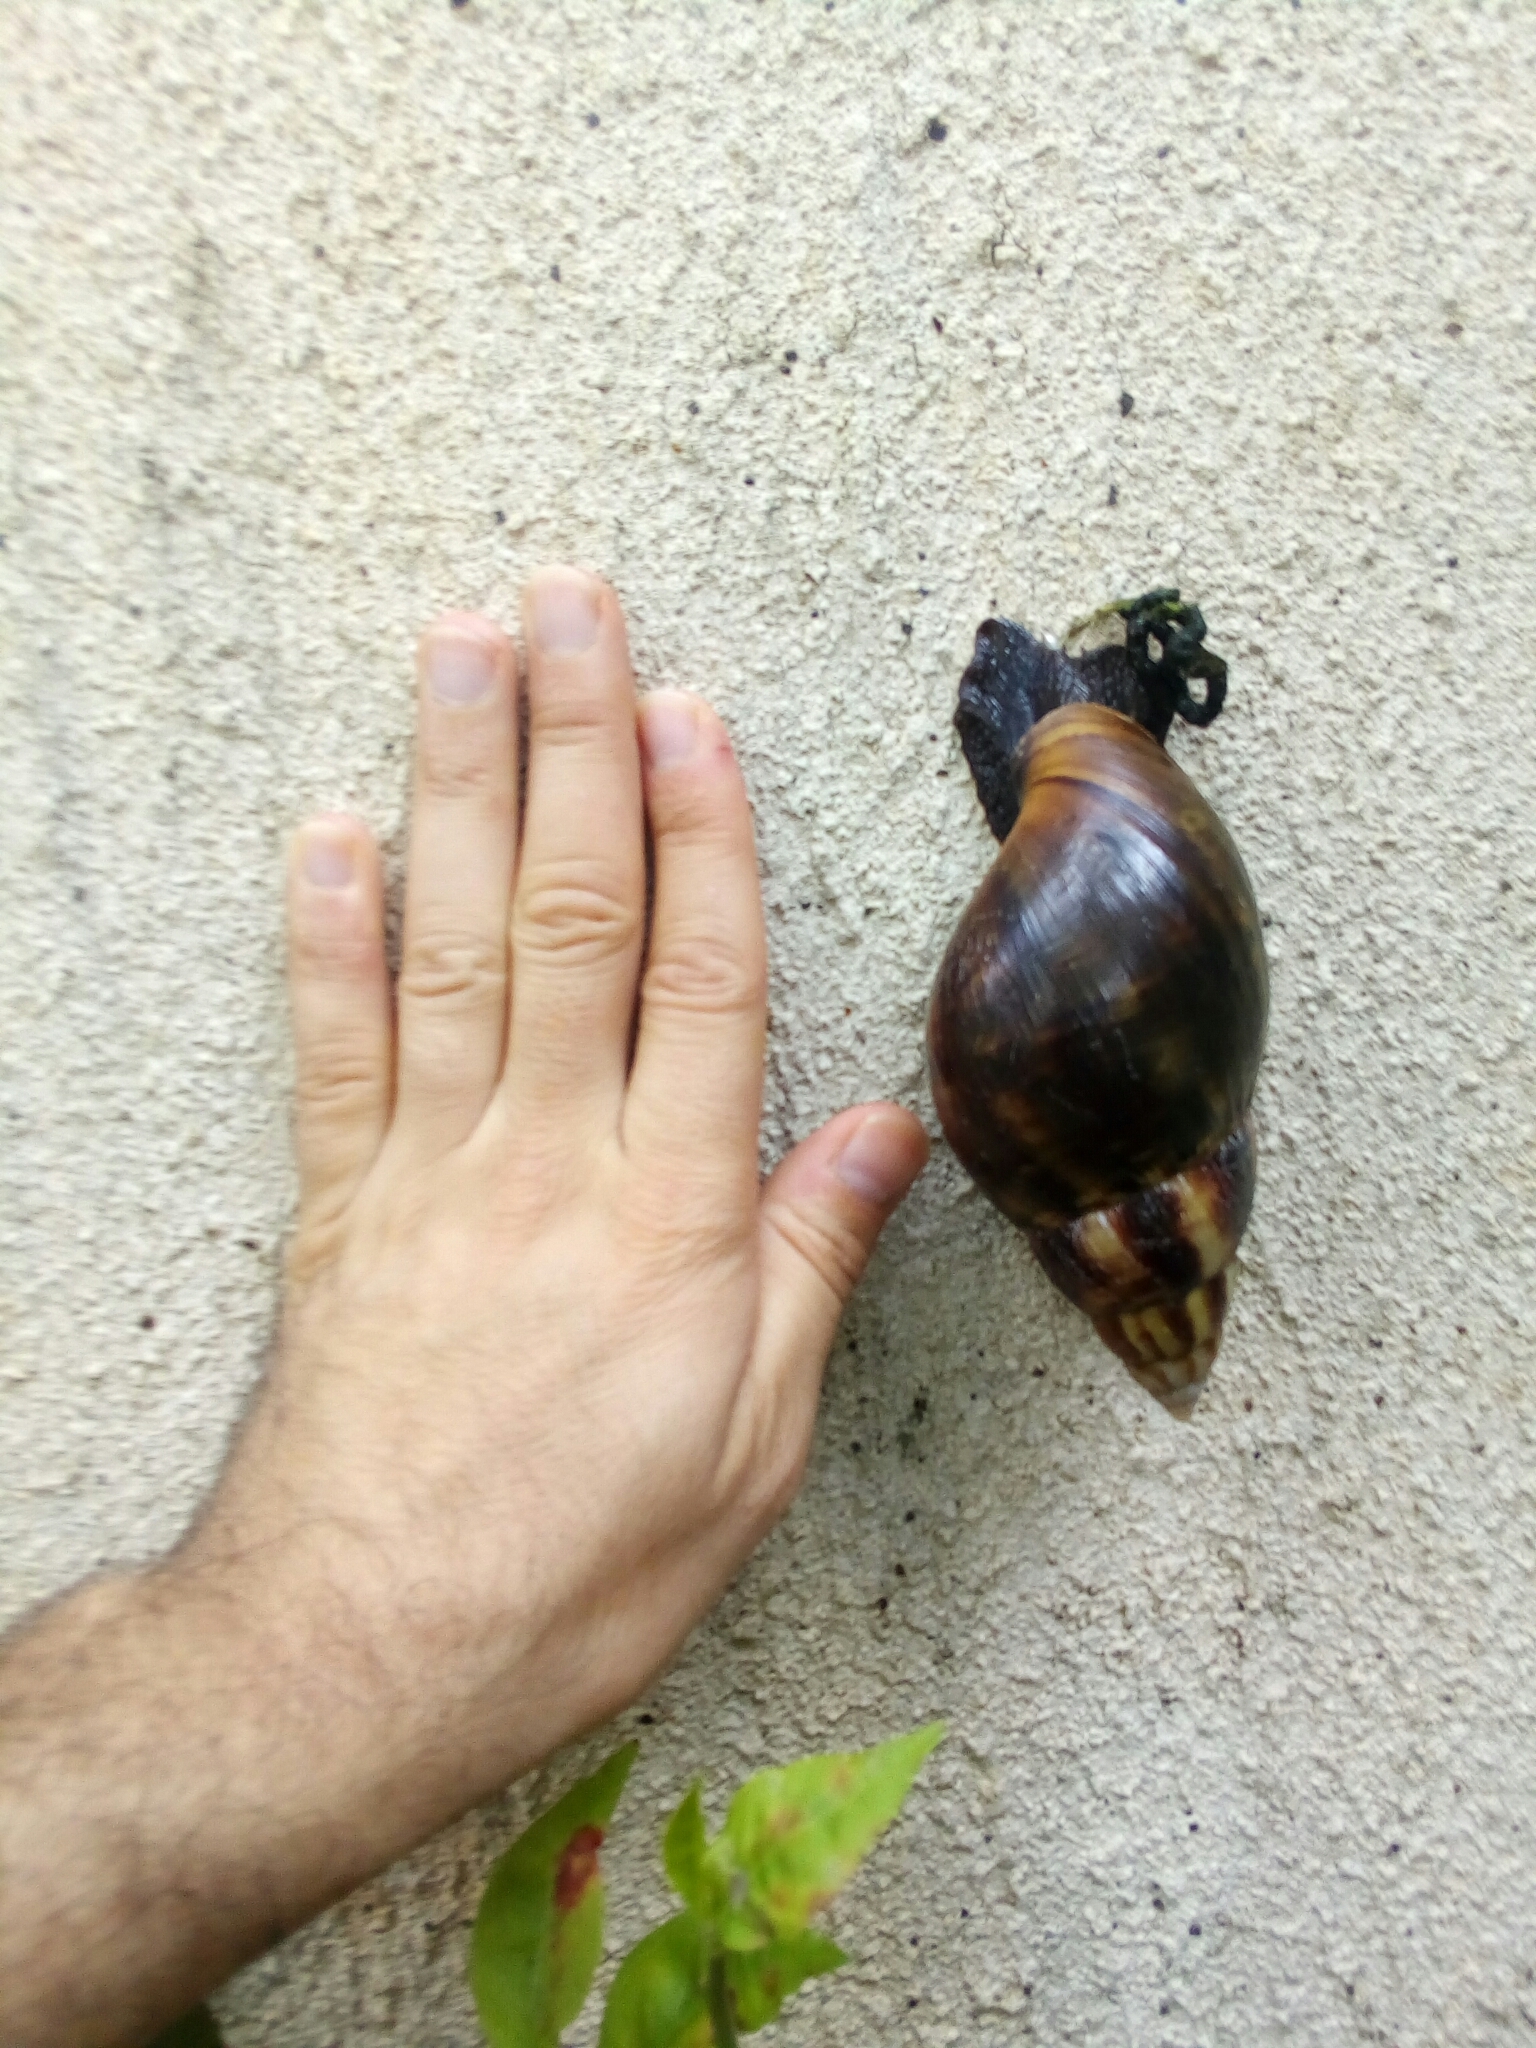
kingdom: Animalia
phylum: Mollusca
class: Gastropoda
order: Stylommatophora
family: Achatinidae
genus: Lissachatina
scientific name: Lissachatina fulica
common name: Giant african snail
